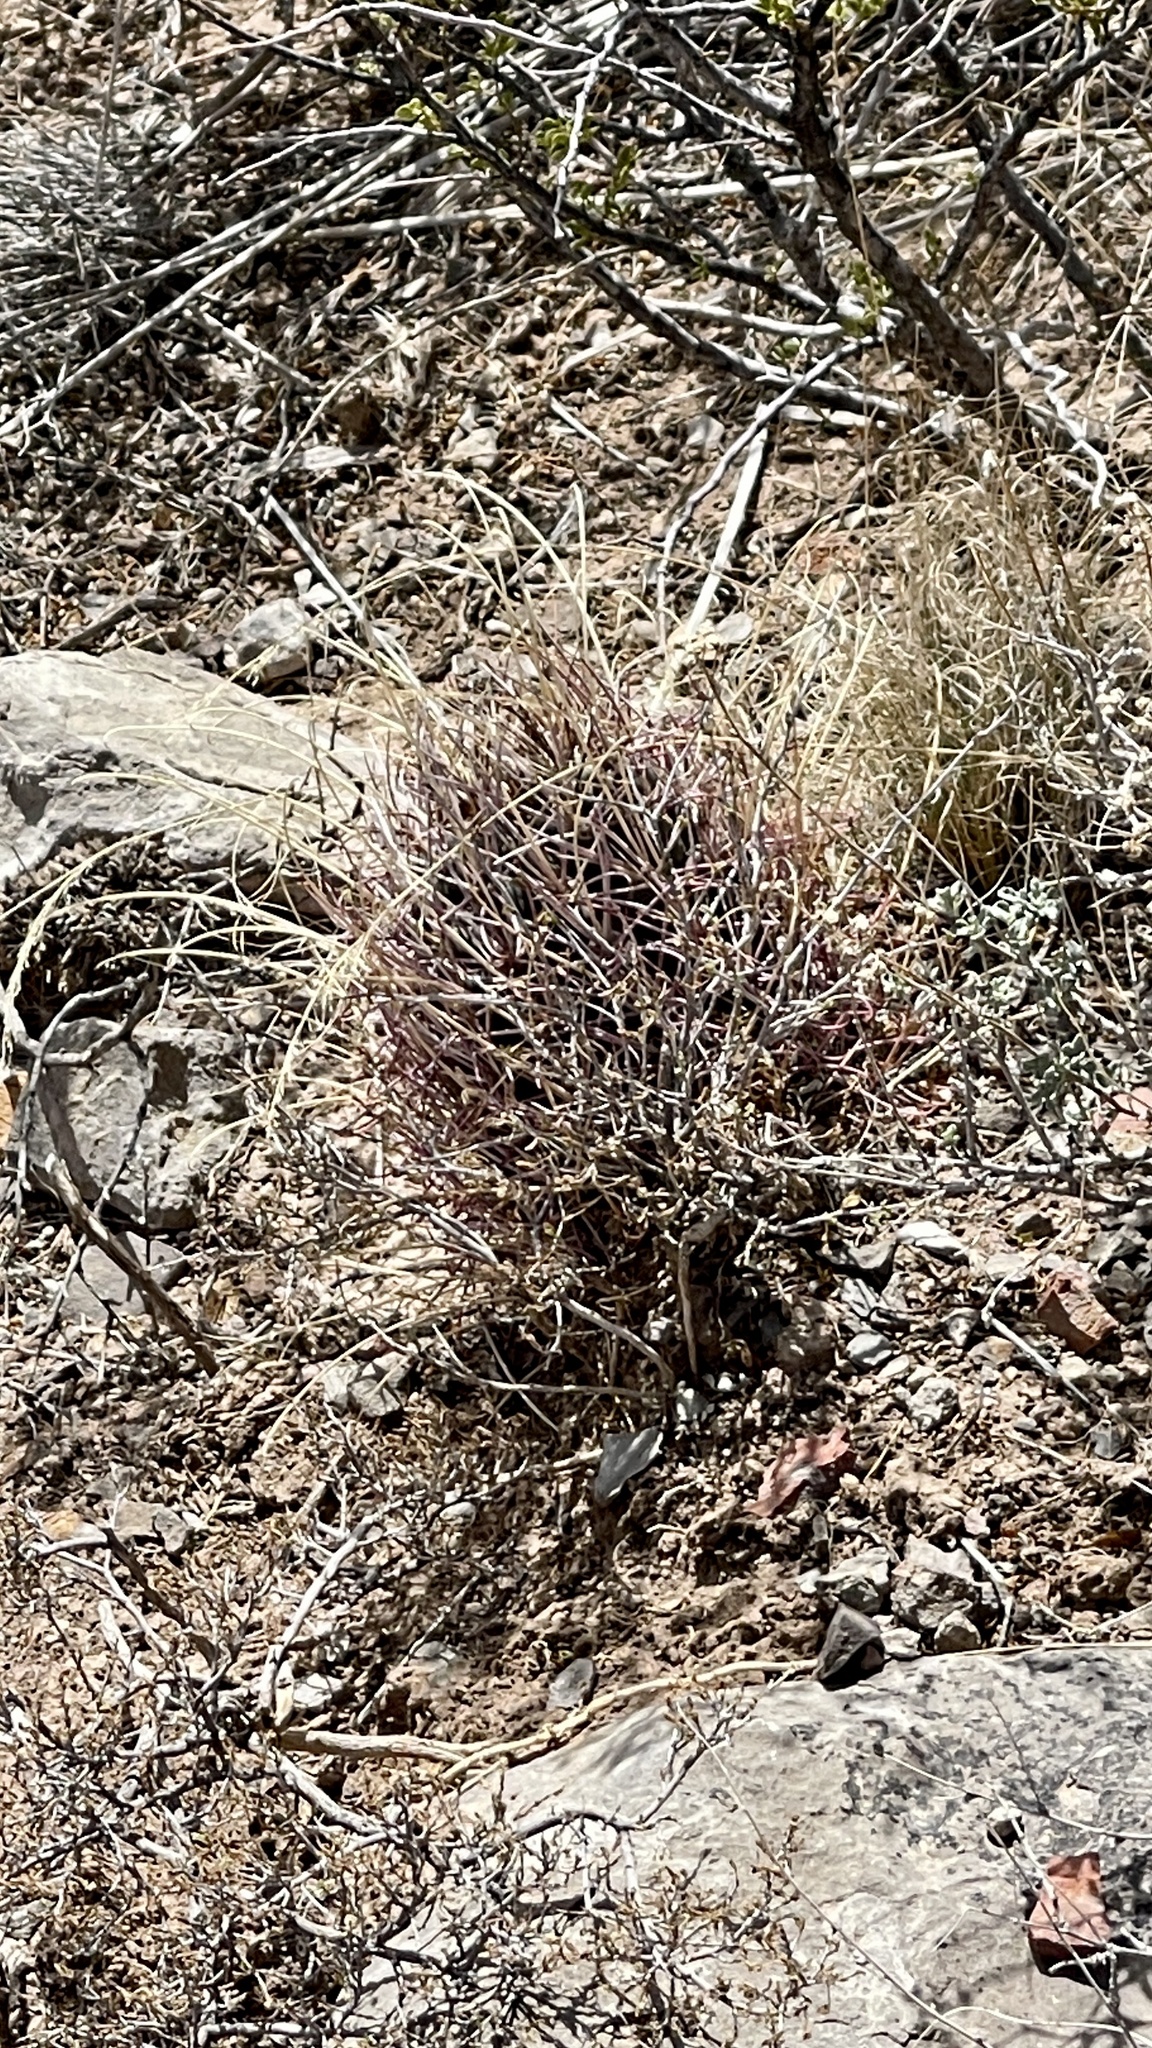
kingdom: Plantae
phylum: Tracheophyta
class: Magnoliopsida
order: Caryophyllales
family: Cactaceae
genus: Ferocactus
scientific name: Ferocactus uncinatus
